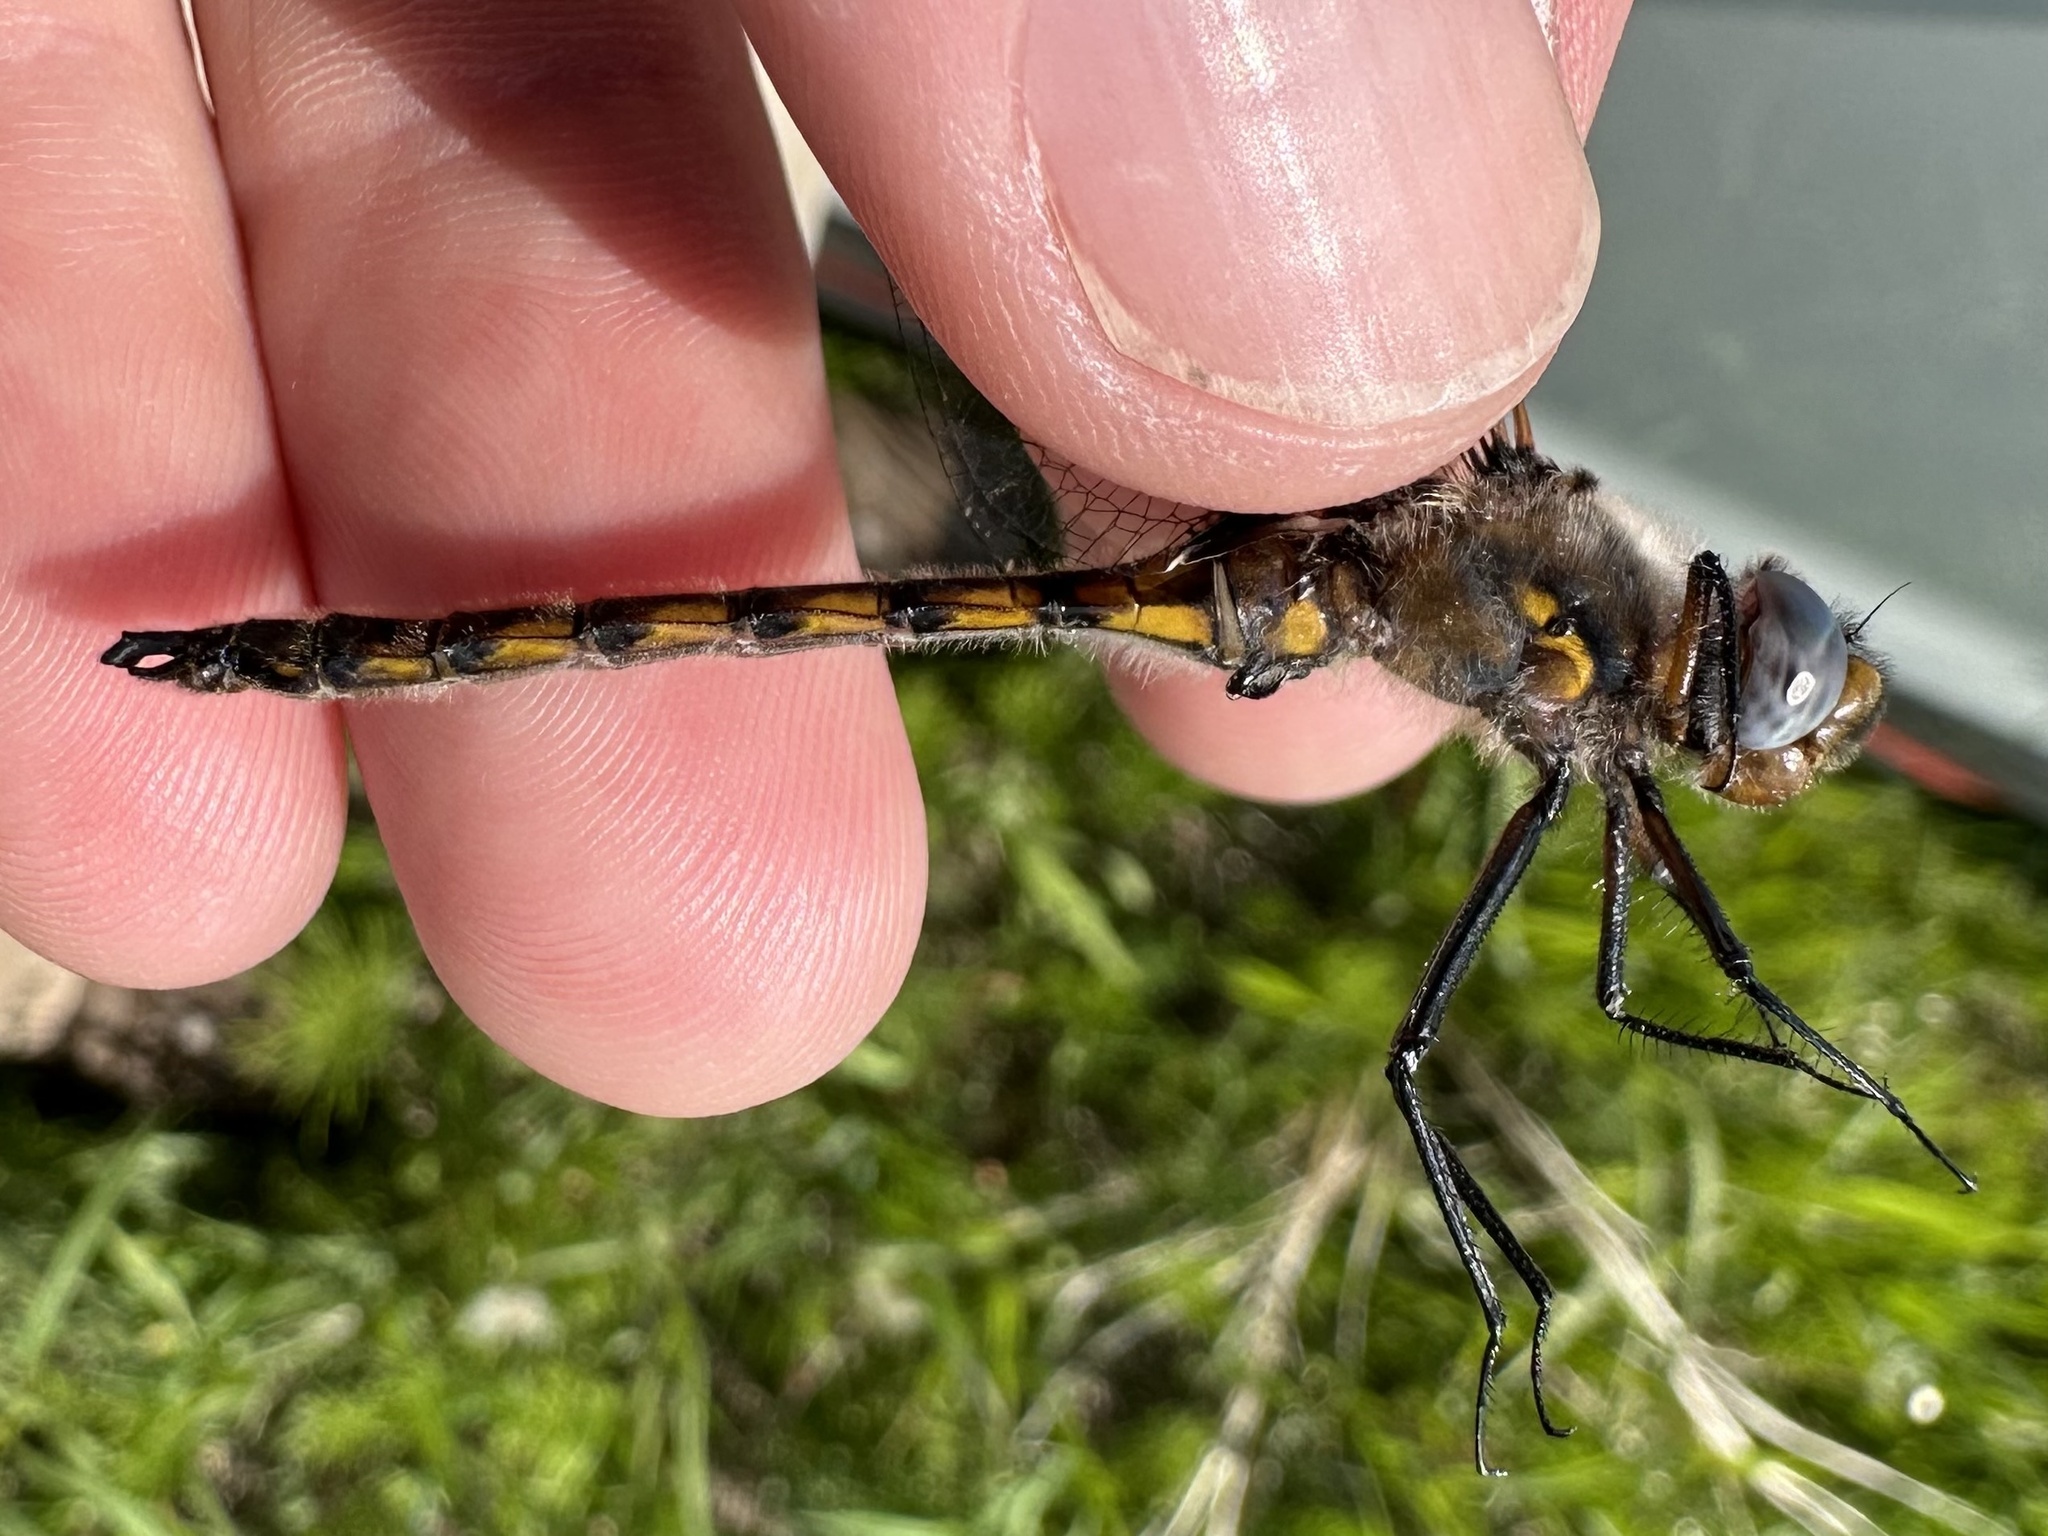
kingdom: Animalia
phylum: Arthropoda
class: Insecta
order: Odonata
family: Corduliidae
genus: Epitheca
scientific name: Epitheca canis
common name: Beaverpond baskettail
